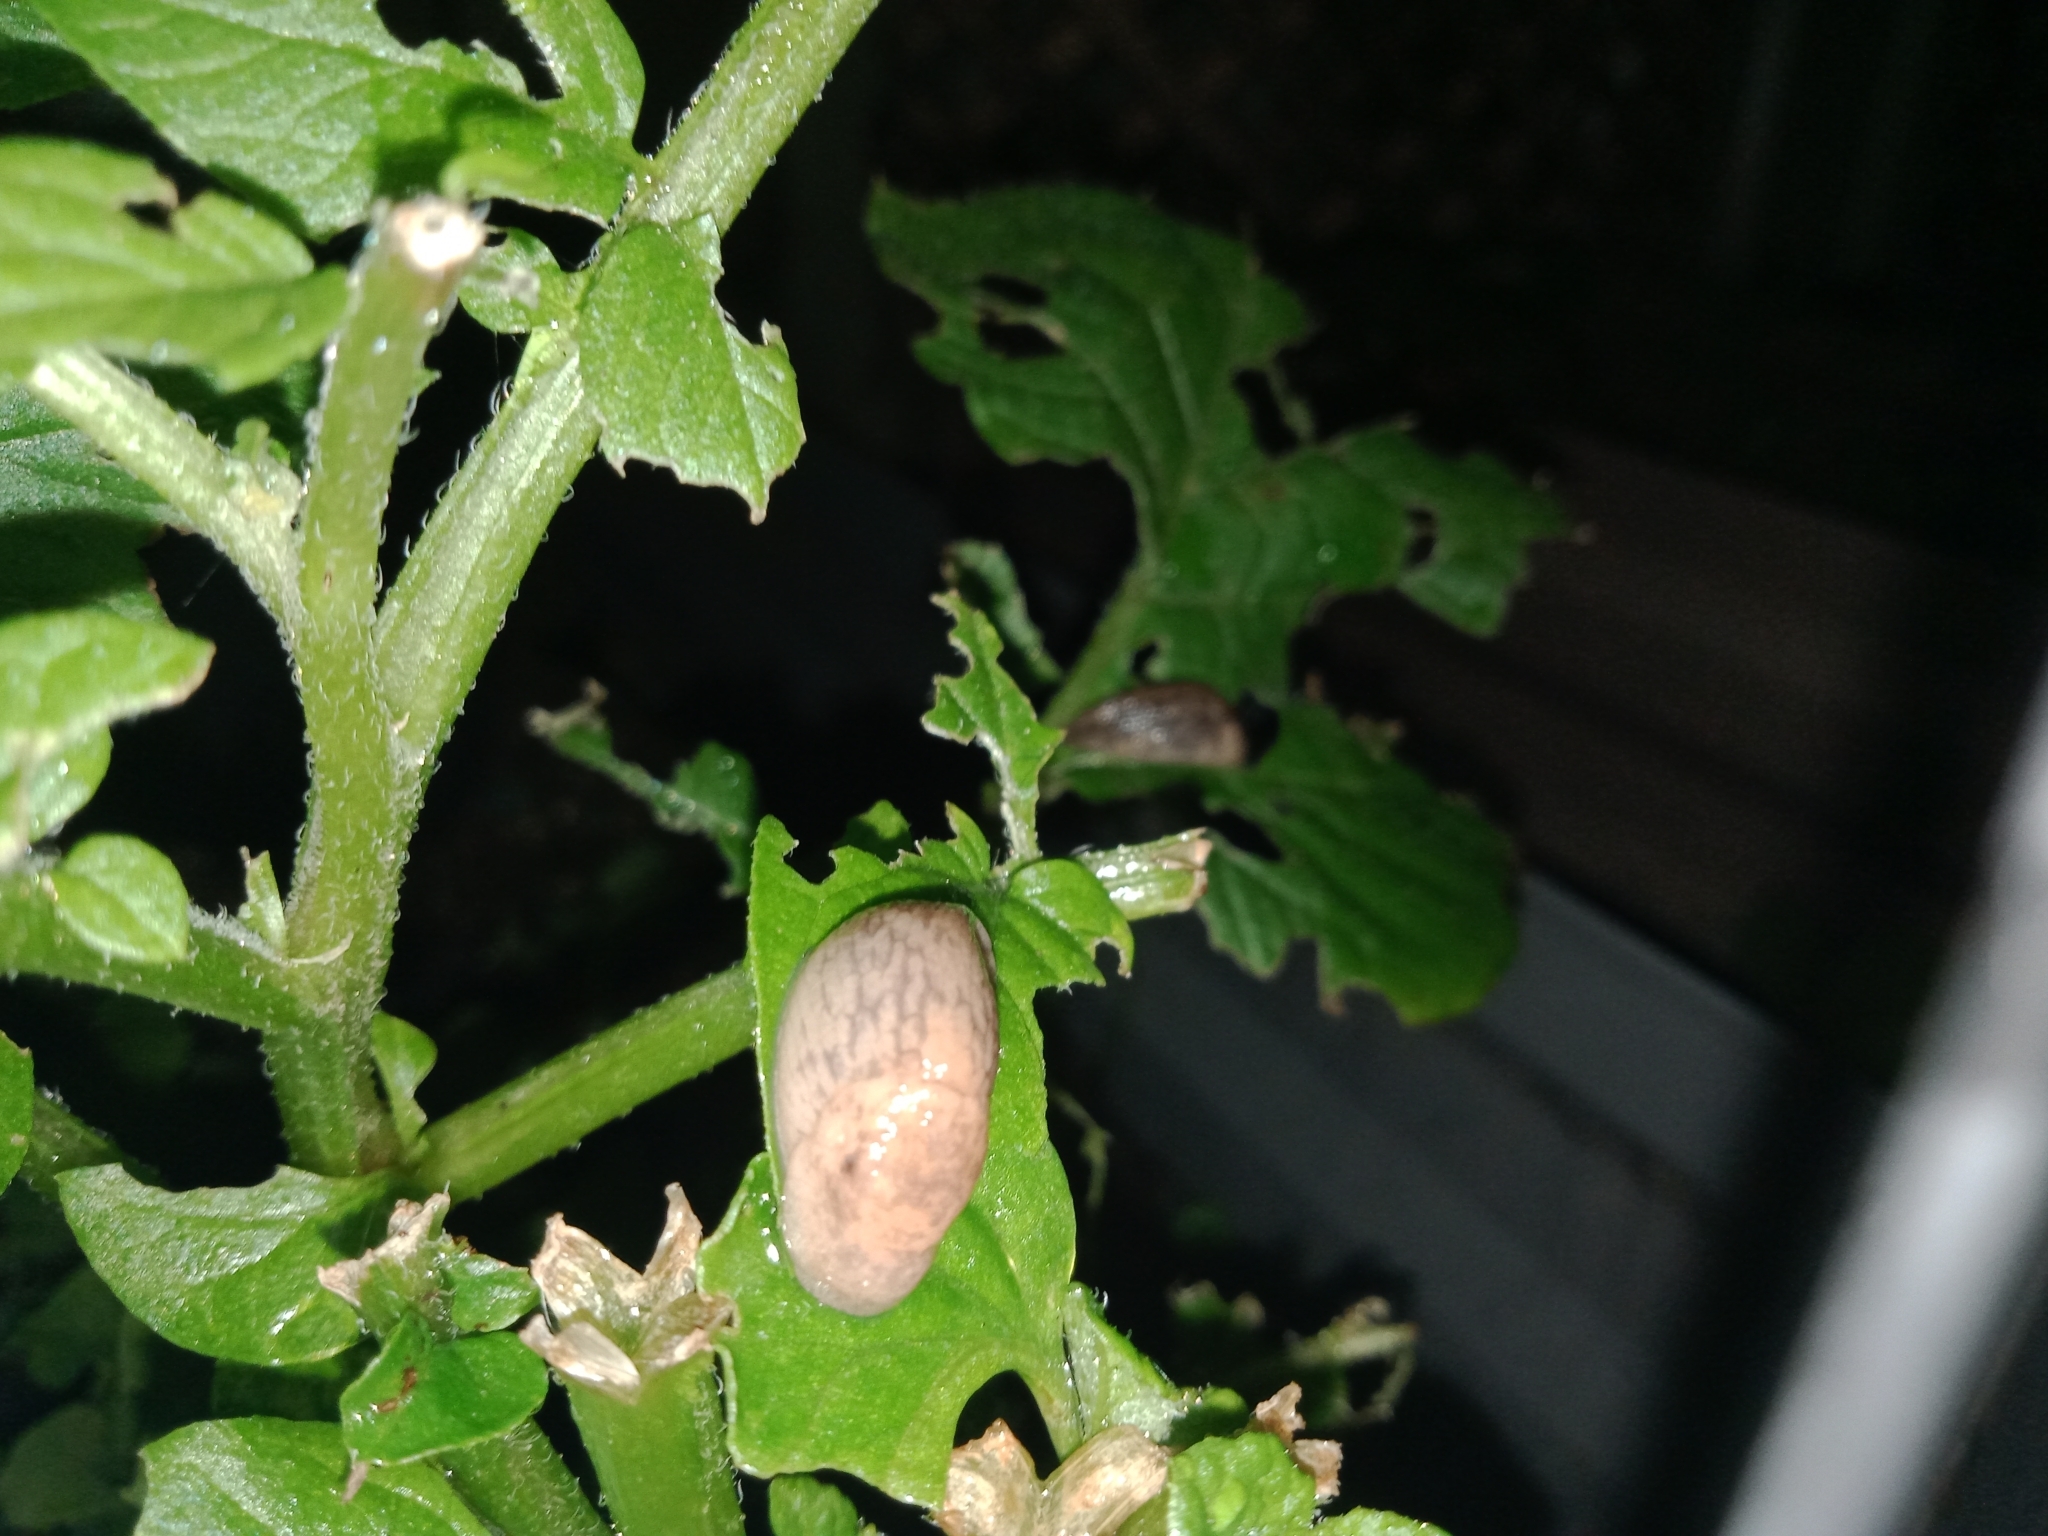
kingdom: Animalia
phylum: Mollusca
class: Gastropoda
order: Stylommatophora
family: Agriolimacidae
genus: Deroceras
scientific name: Deroceras reticulatum
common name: Gray field slug
